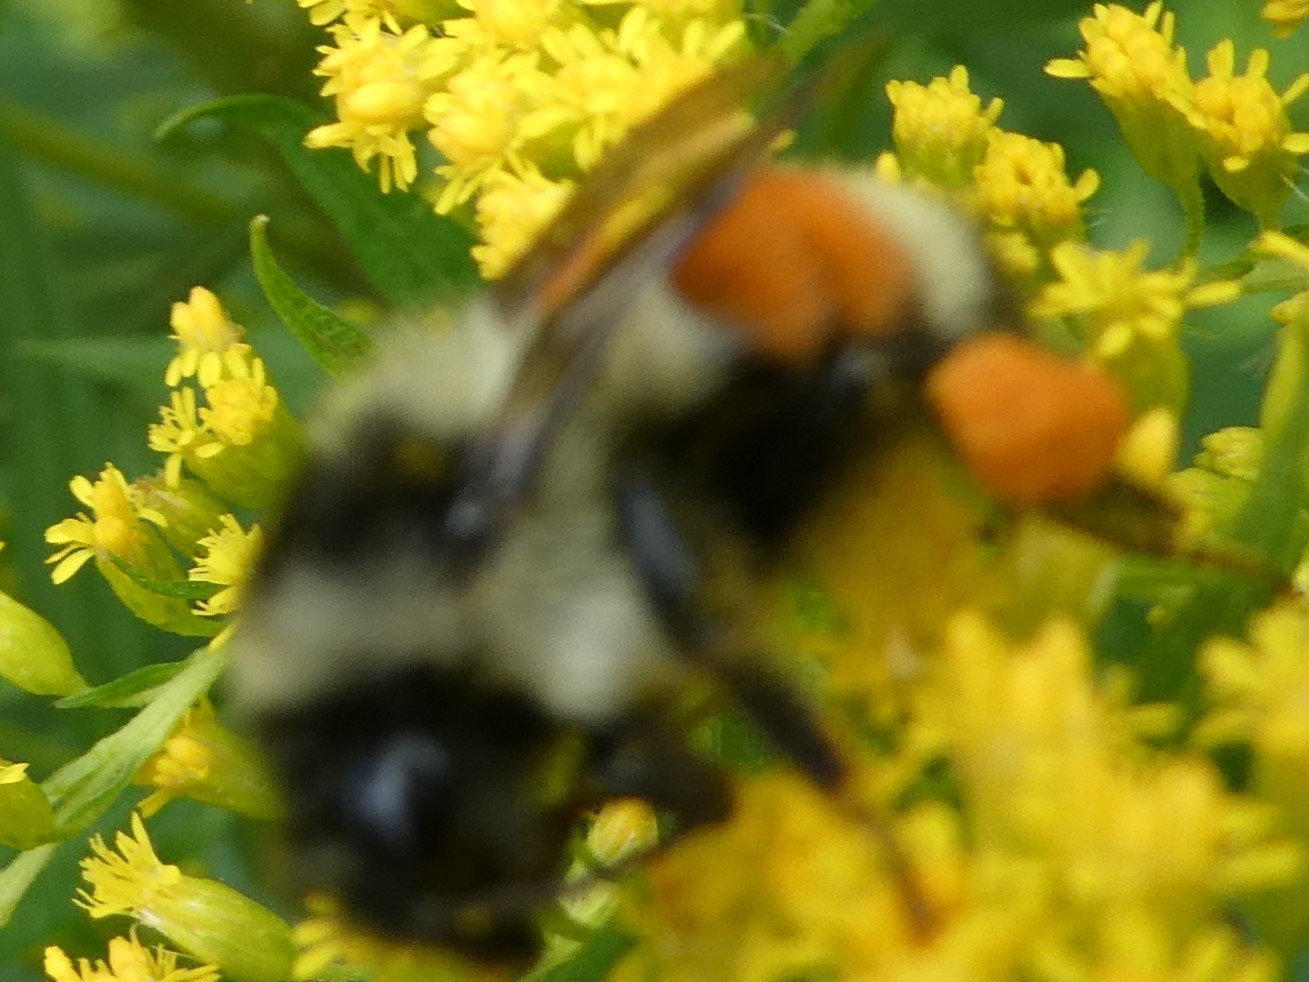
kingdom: Animalia
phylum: Arthropoda
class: Insecta
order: Hymenoptera
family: Apidae
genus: Bombus
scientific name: Bombus ternarius
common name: Tri-colored bumble bee
